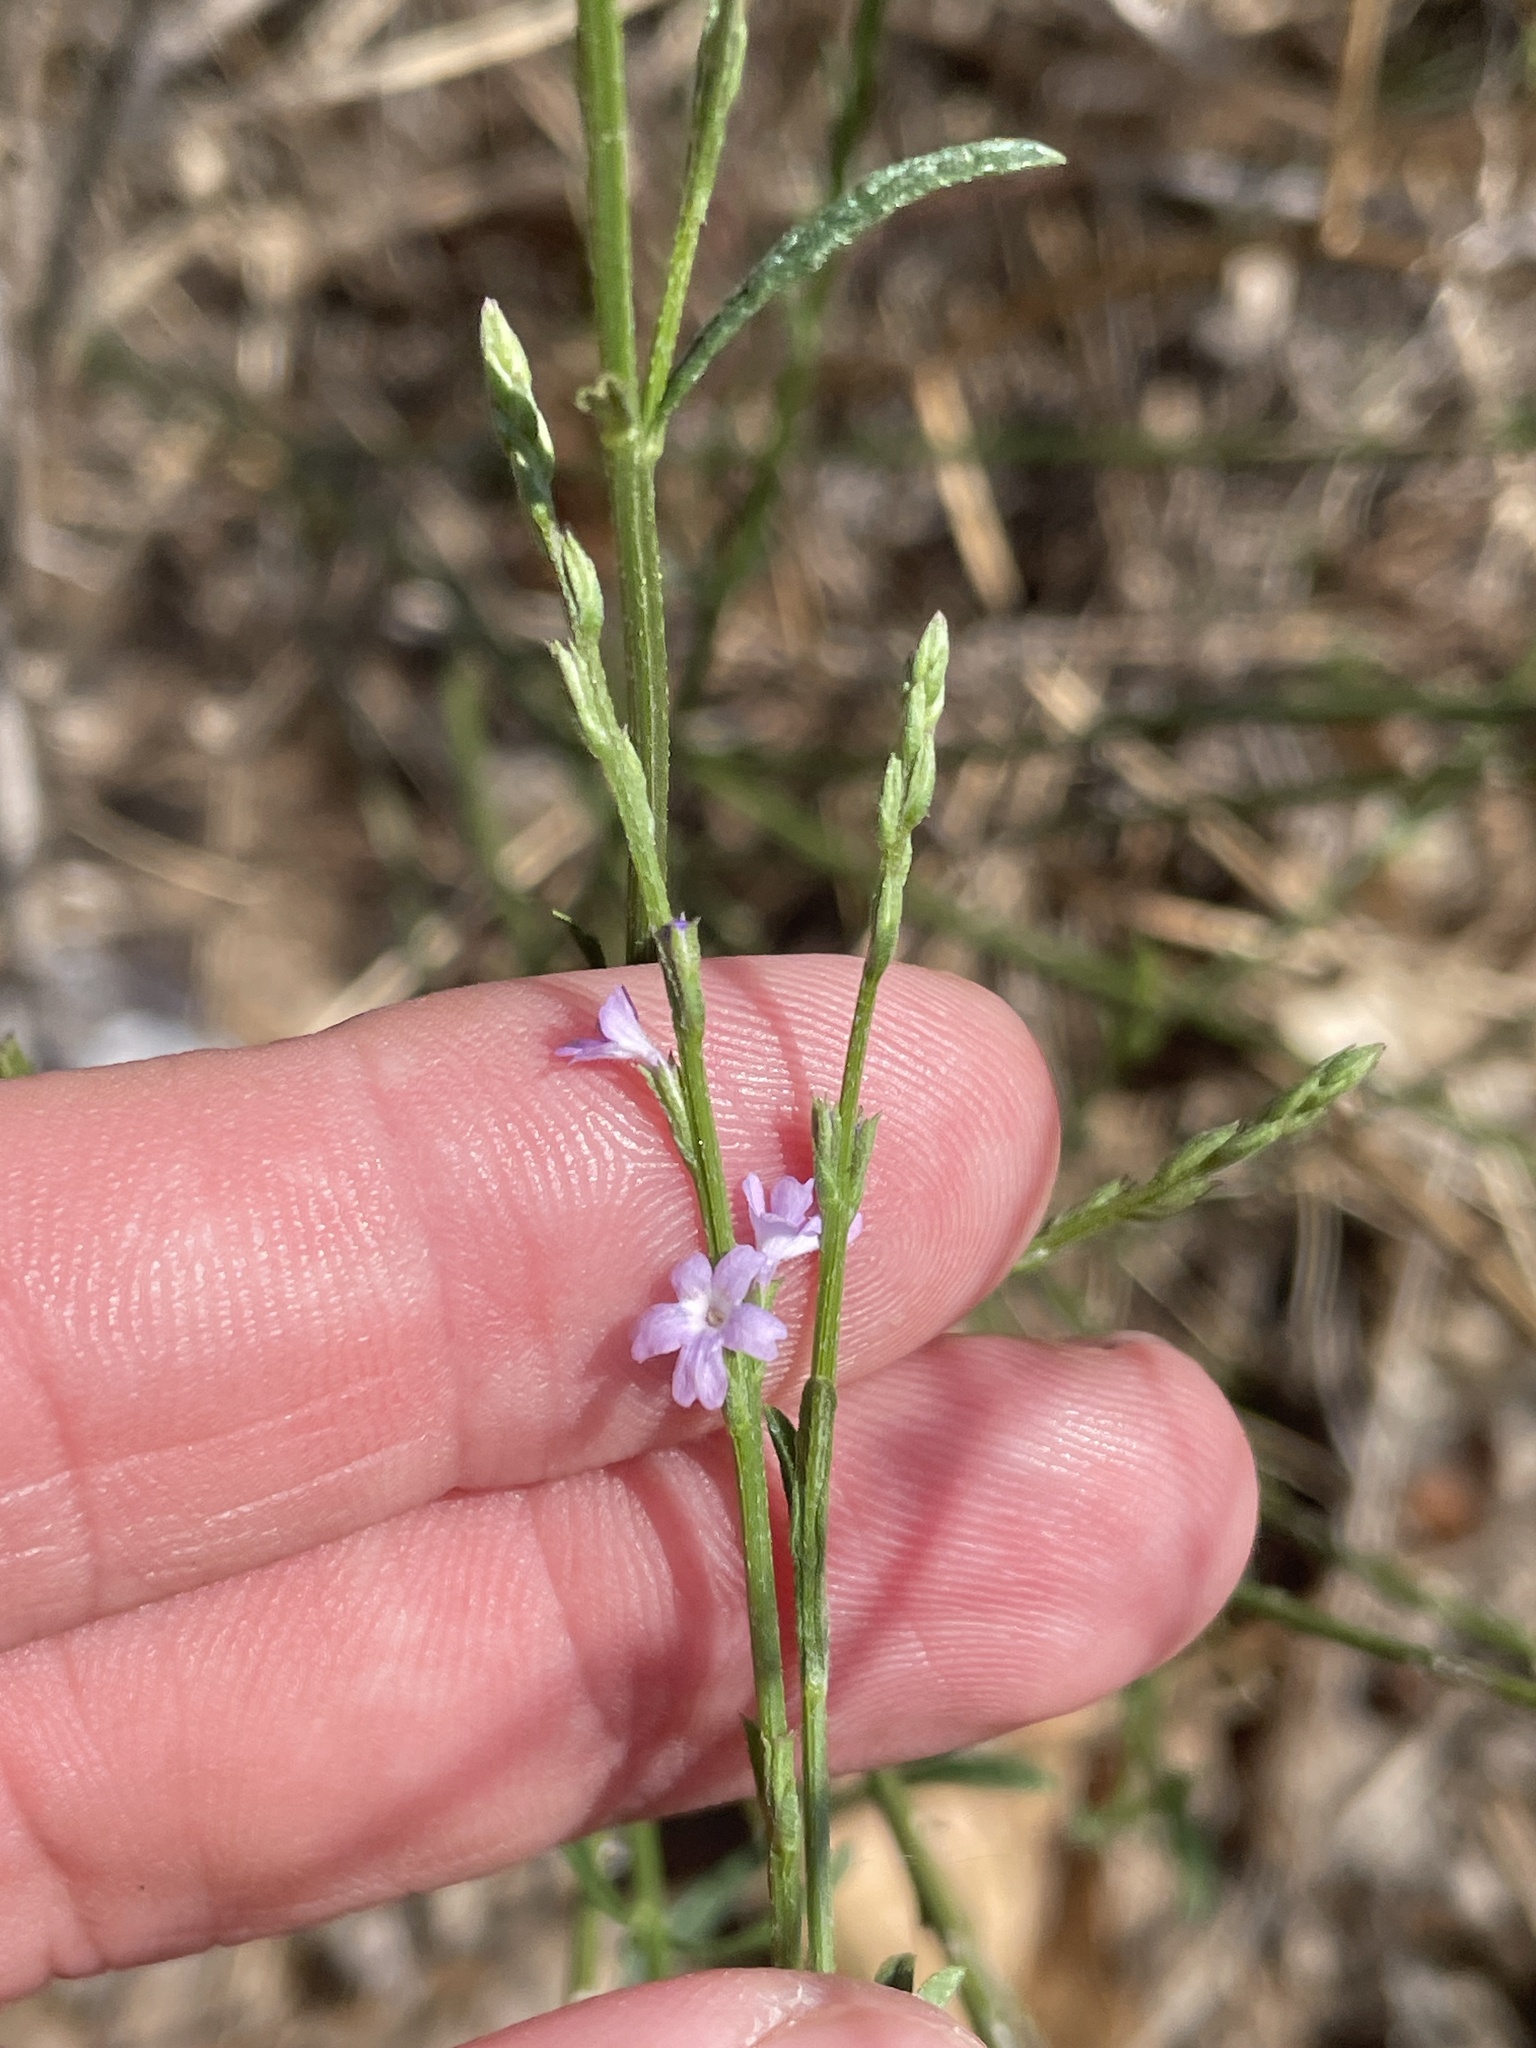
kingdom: Plantae
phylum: Tracheophyta
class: Magnoliopsida
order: Lamiales
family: Verbenaceae
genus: Verbena
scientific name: Verbena halei
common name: Texas vervain
